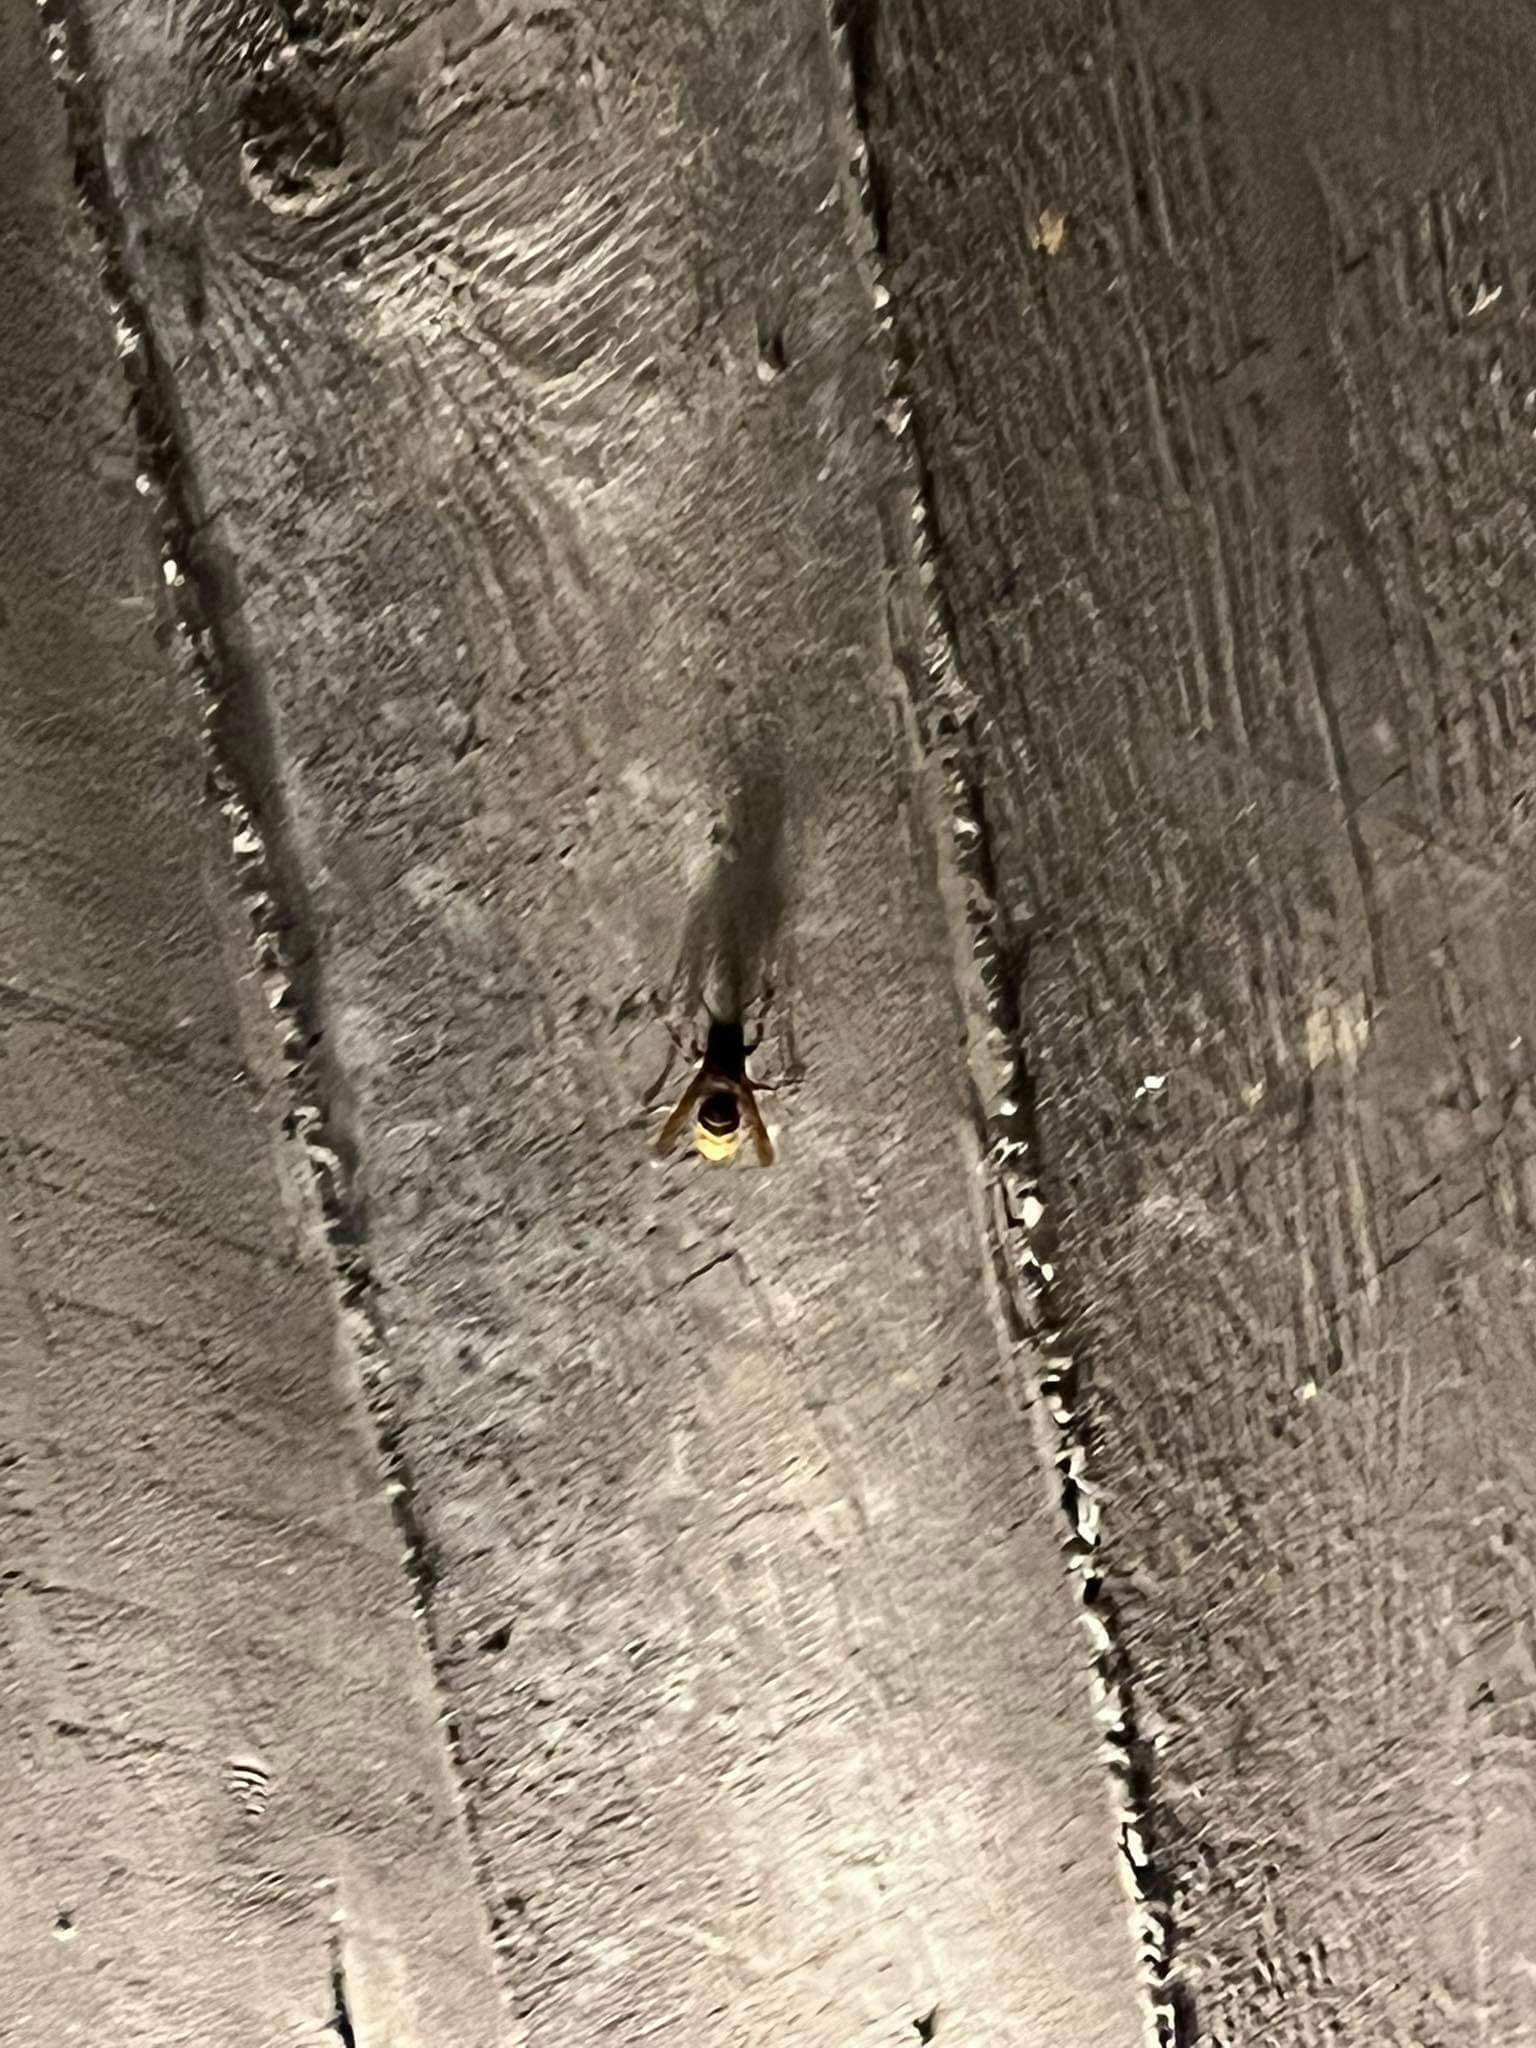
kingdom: Animalia
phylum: Arthropoda
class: Insecta
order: Hymenoptera
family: Vespidae
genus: Vespa
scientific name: Vespa crabro
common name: Hornet
